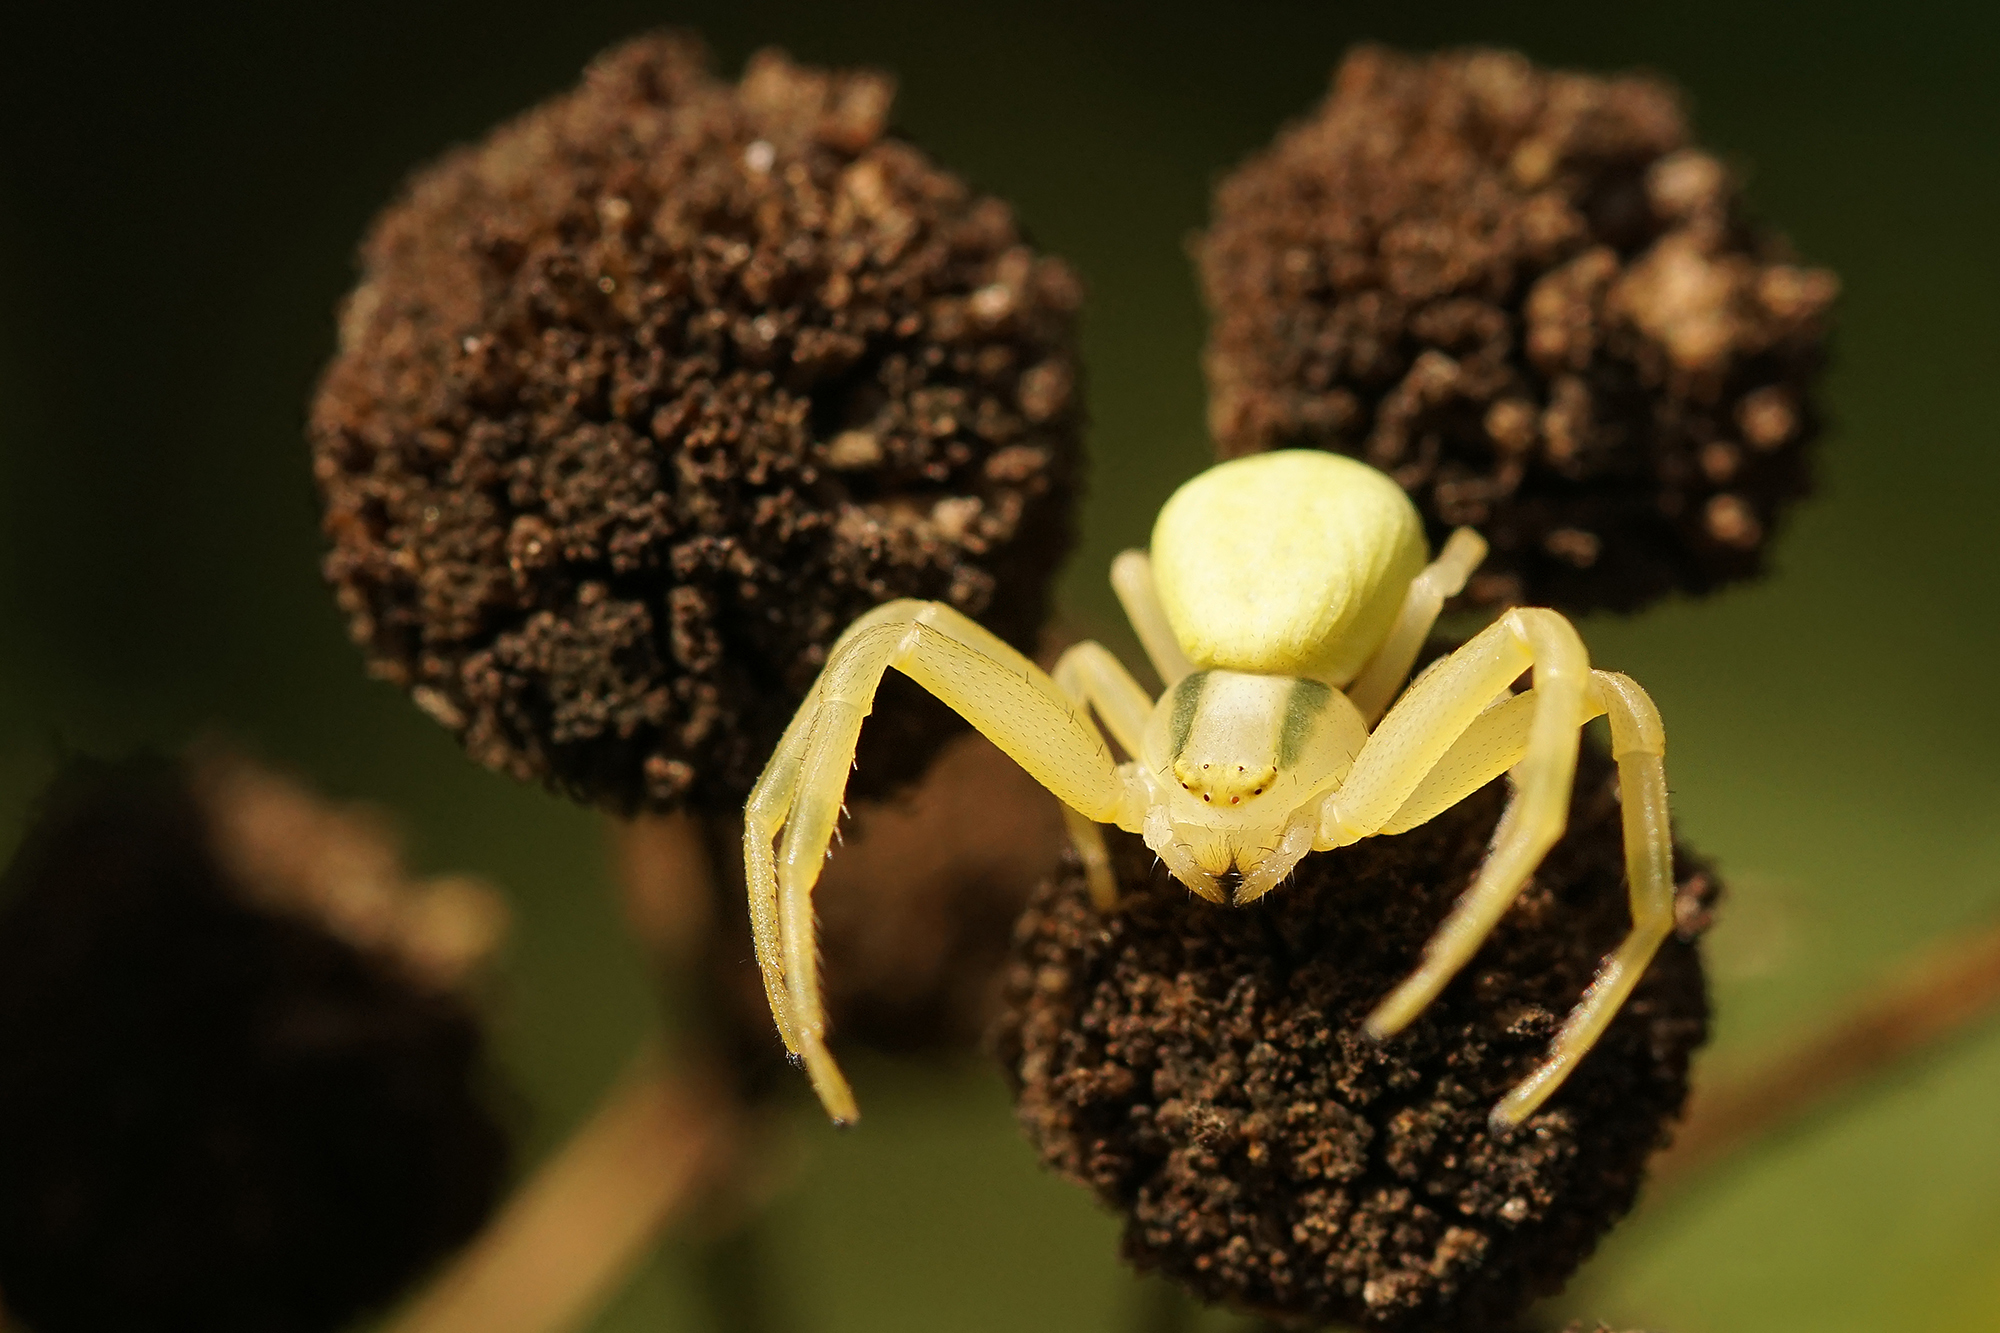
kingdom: Animalia
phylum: Arthropoda
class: Arachnida
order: Araneae
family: Thomisidae
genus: Misumena
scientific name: Misumena vatia
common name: Goldenrod crab spider
